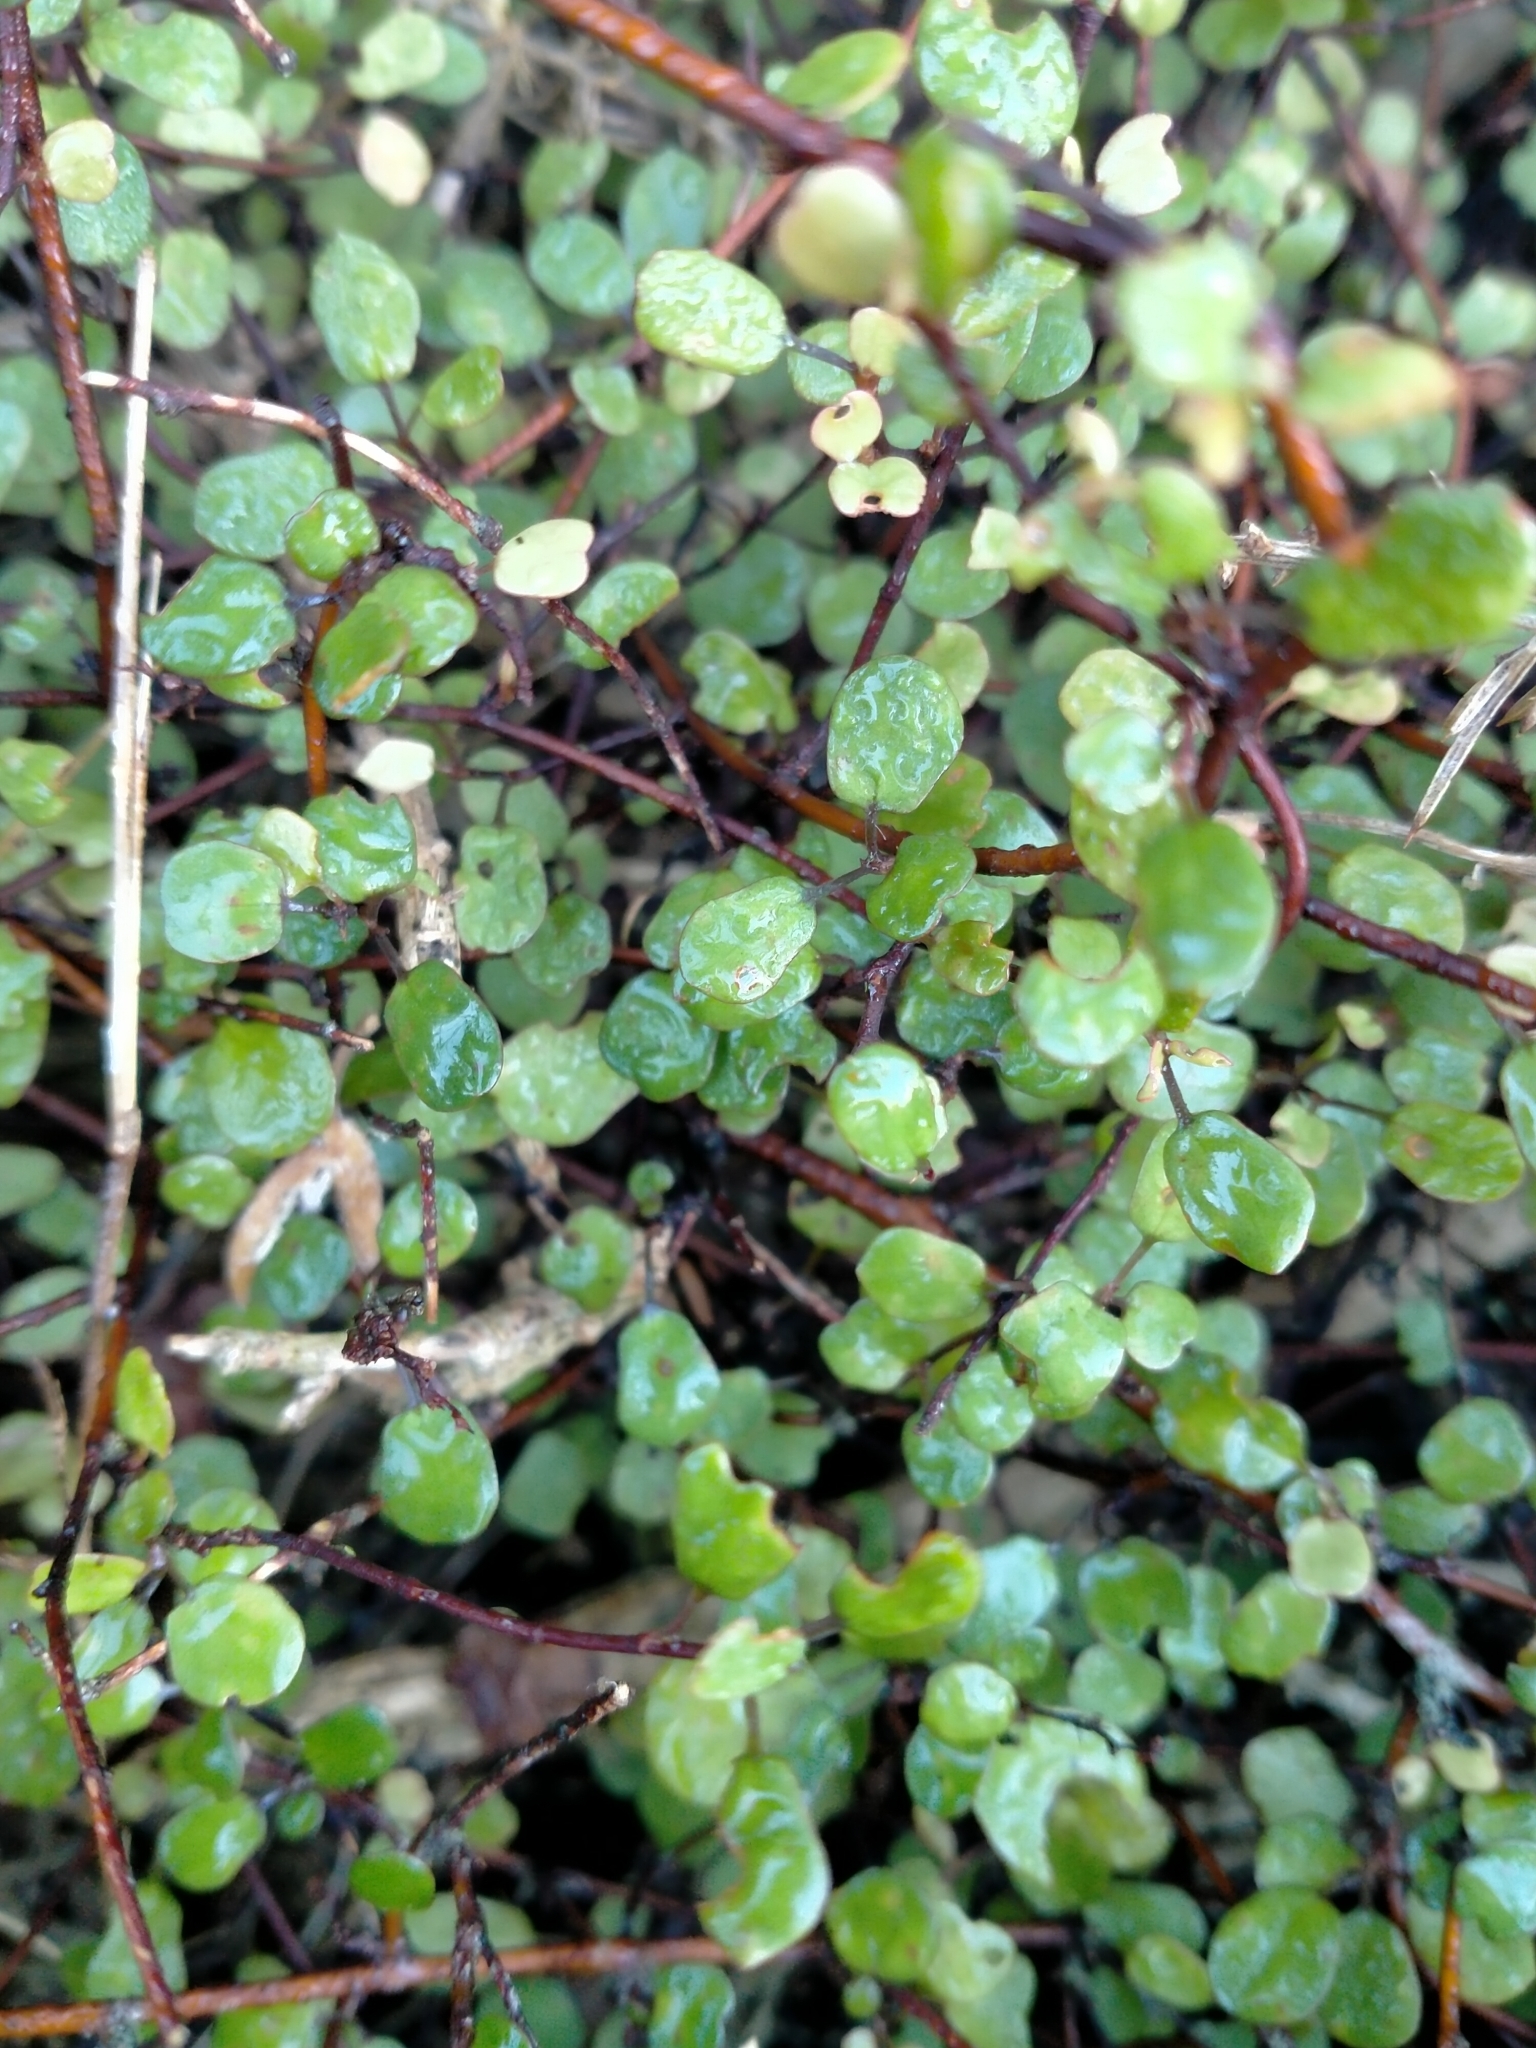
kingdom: Plantae
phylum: Tracheophyta
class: Magnoliopsida
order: Caryophyllales
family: Polygonaceae
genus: Muehlenbeckia
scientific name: Muehlenbeckia complexa
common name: Wireplant
